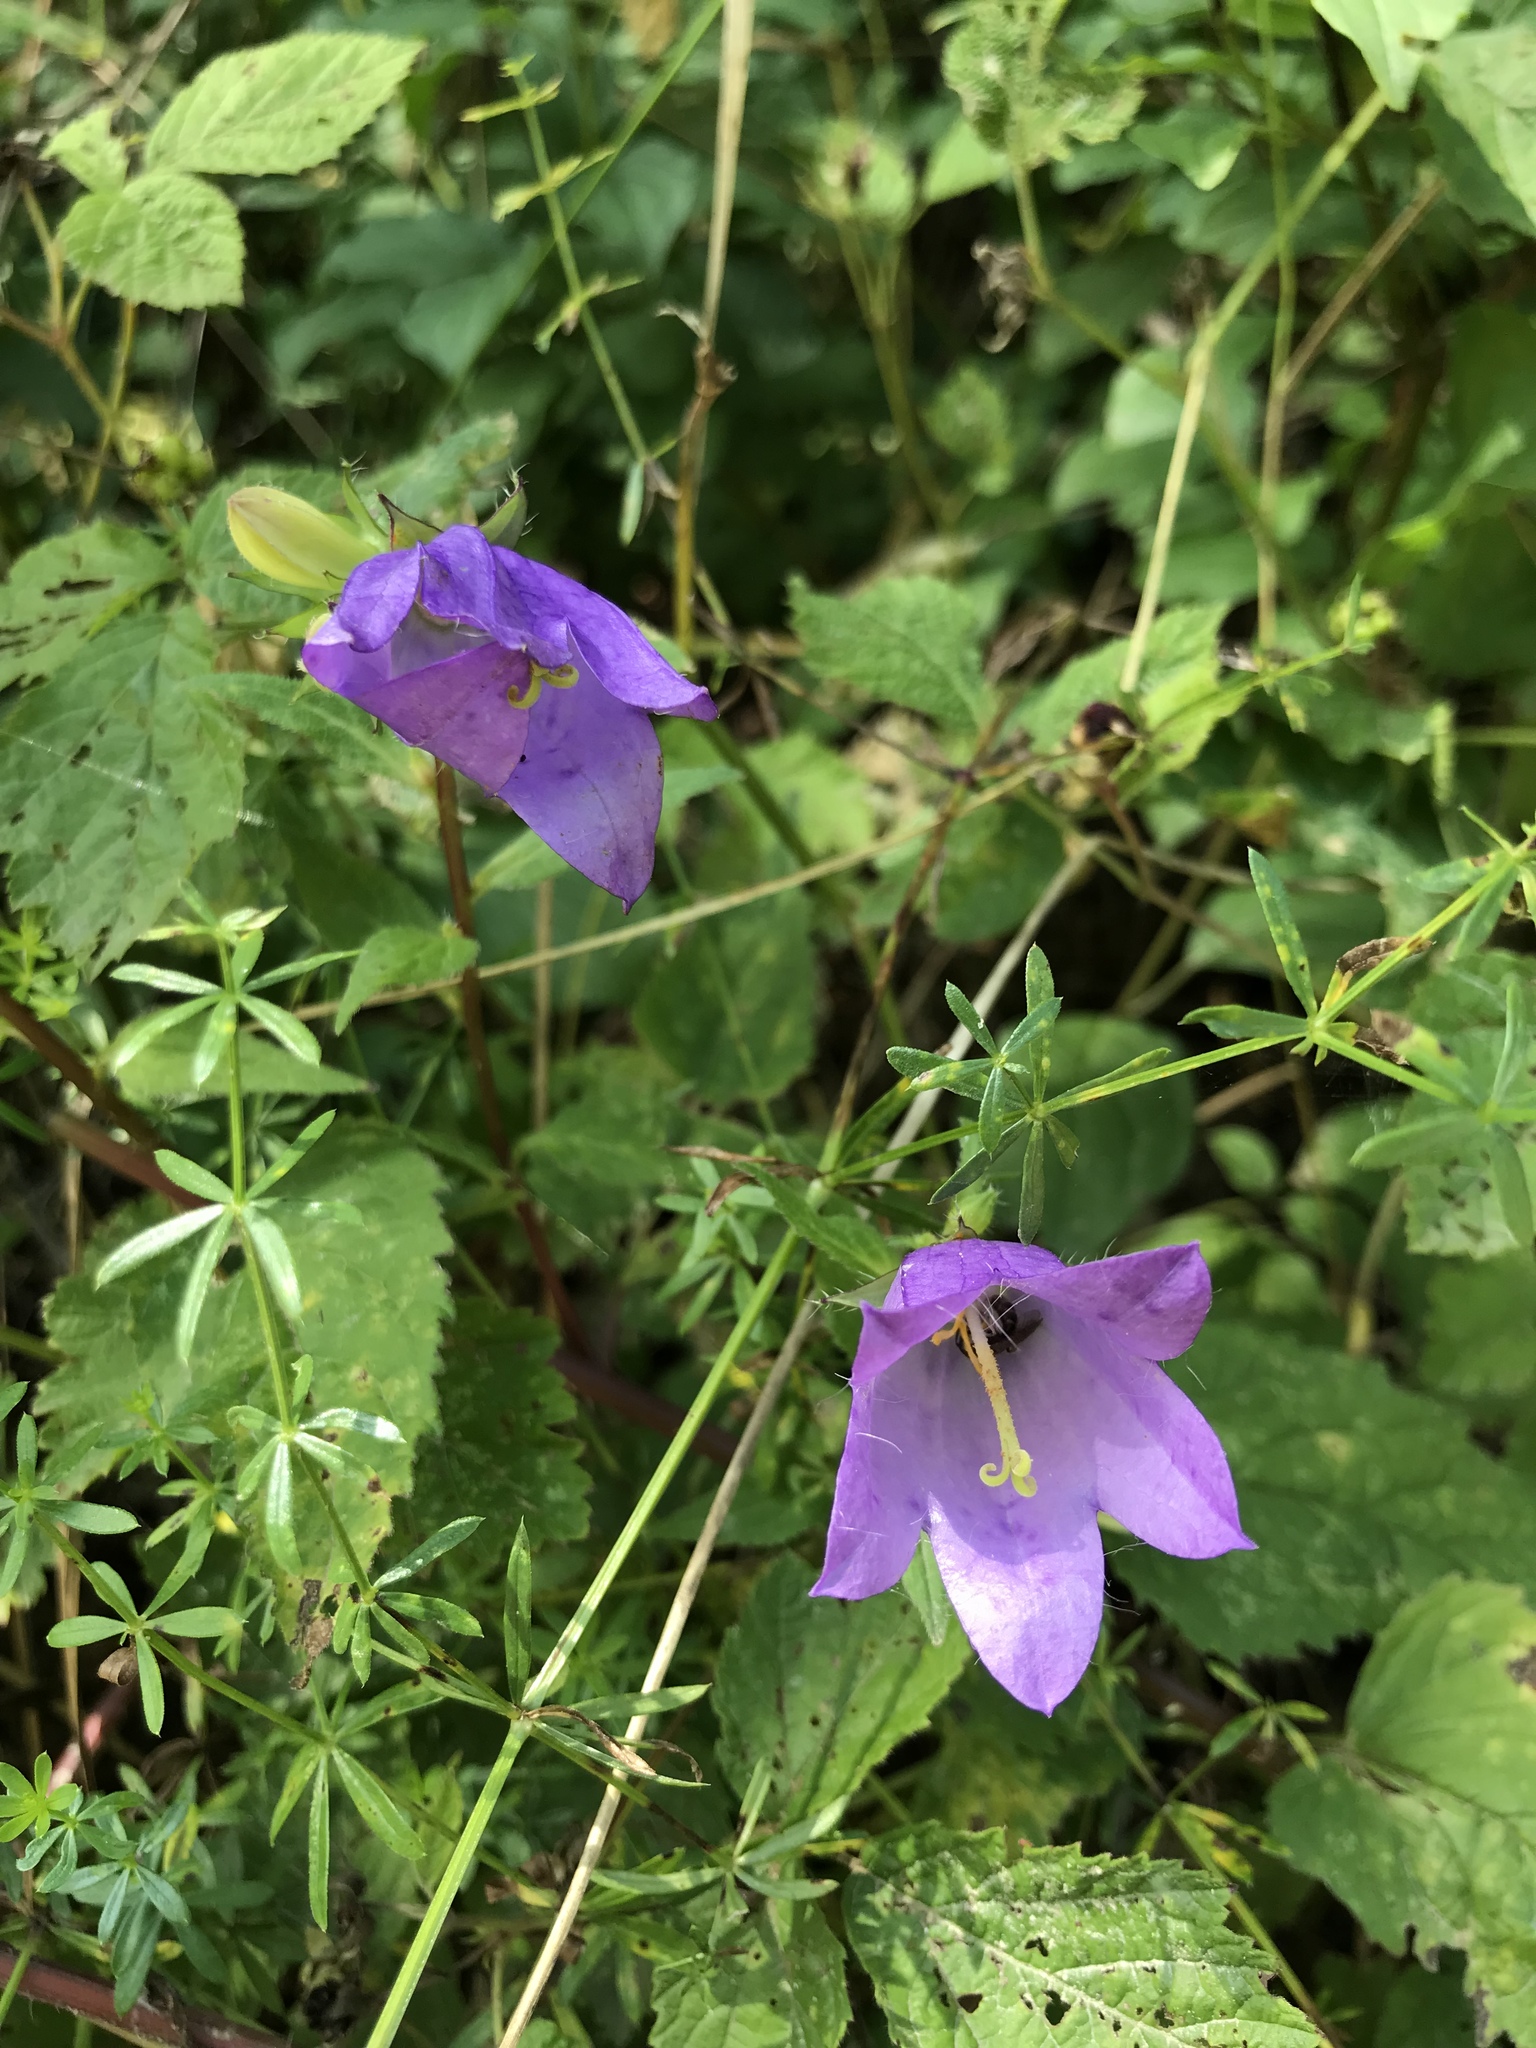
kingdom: Plantae
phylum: Tracheophyta
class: Magnoliopsida
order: Asterales
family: Campanulaceae
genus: Campanula
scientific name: Campanula trachelium
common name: Nettle-leaved bellflower
